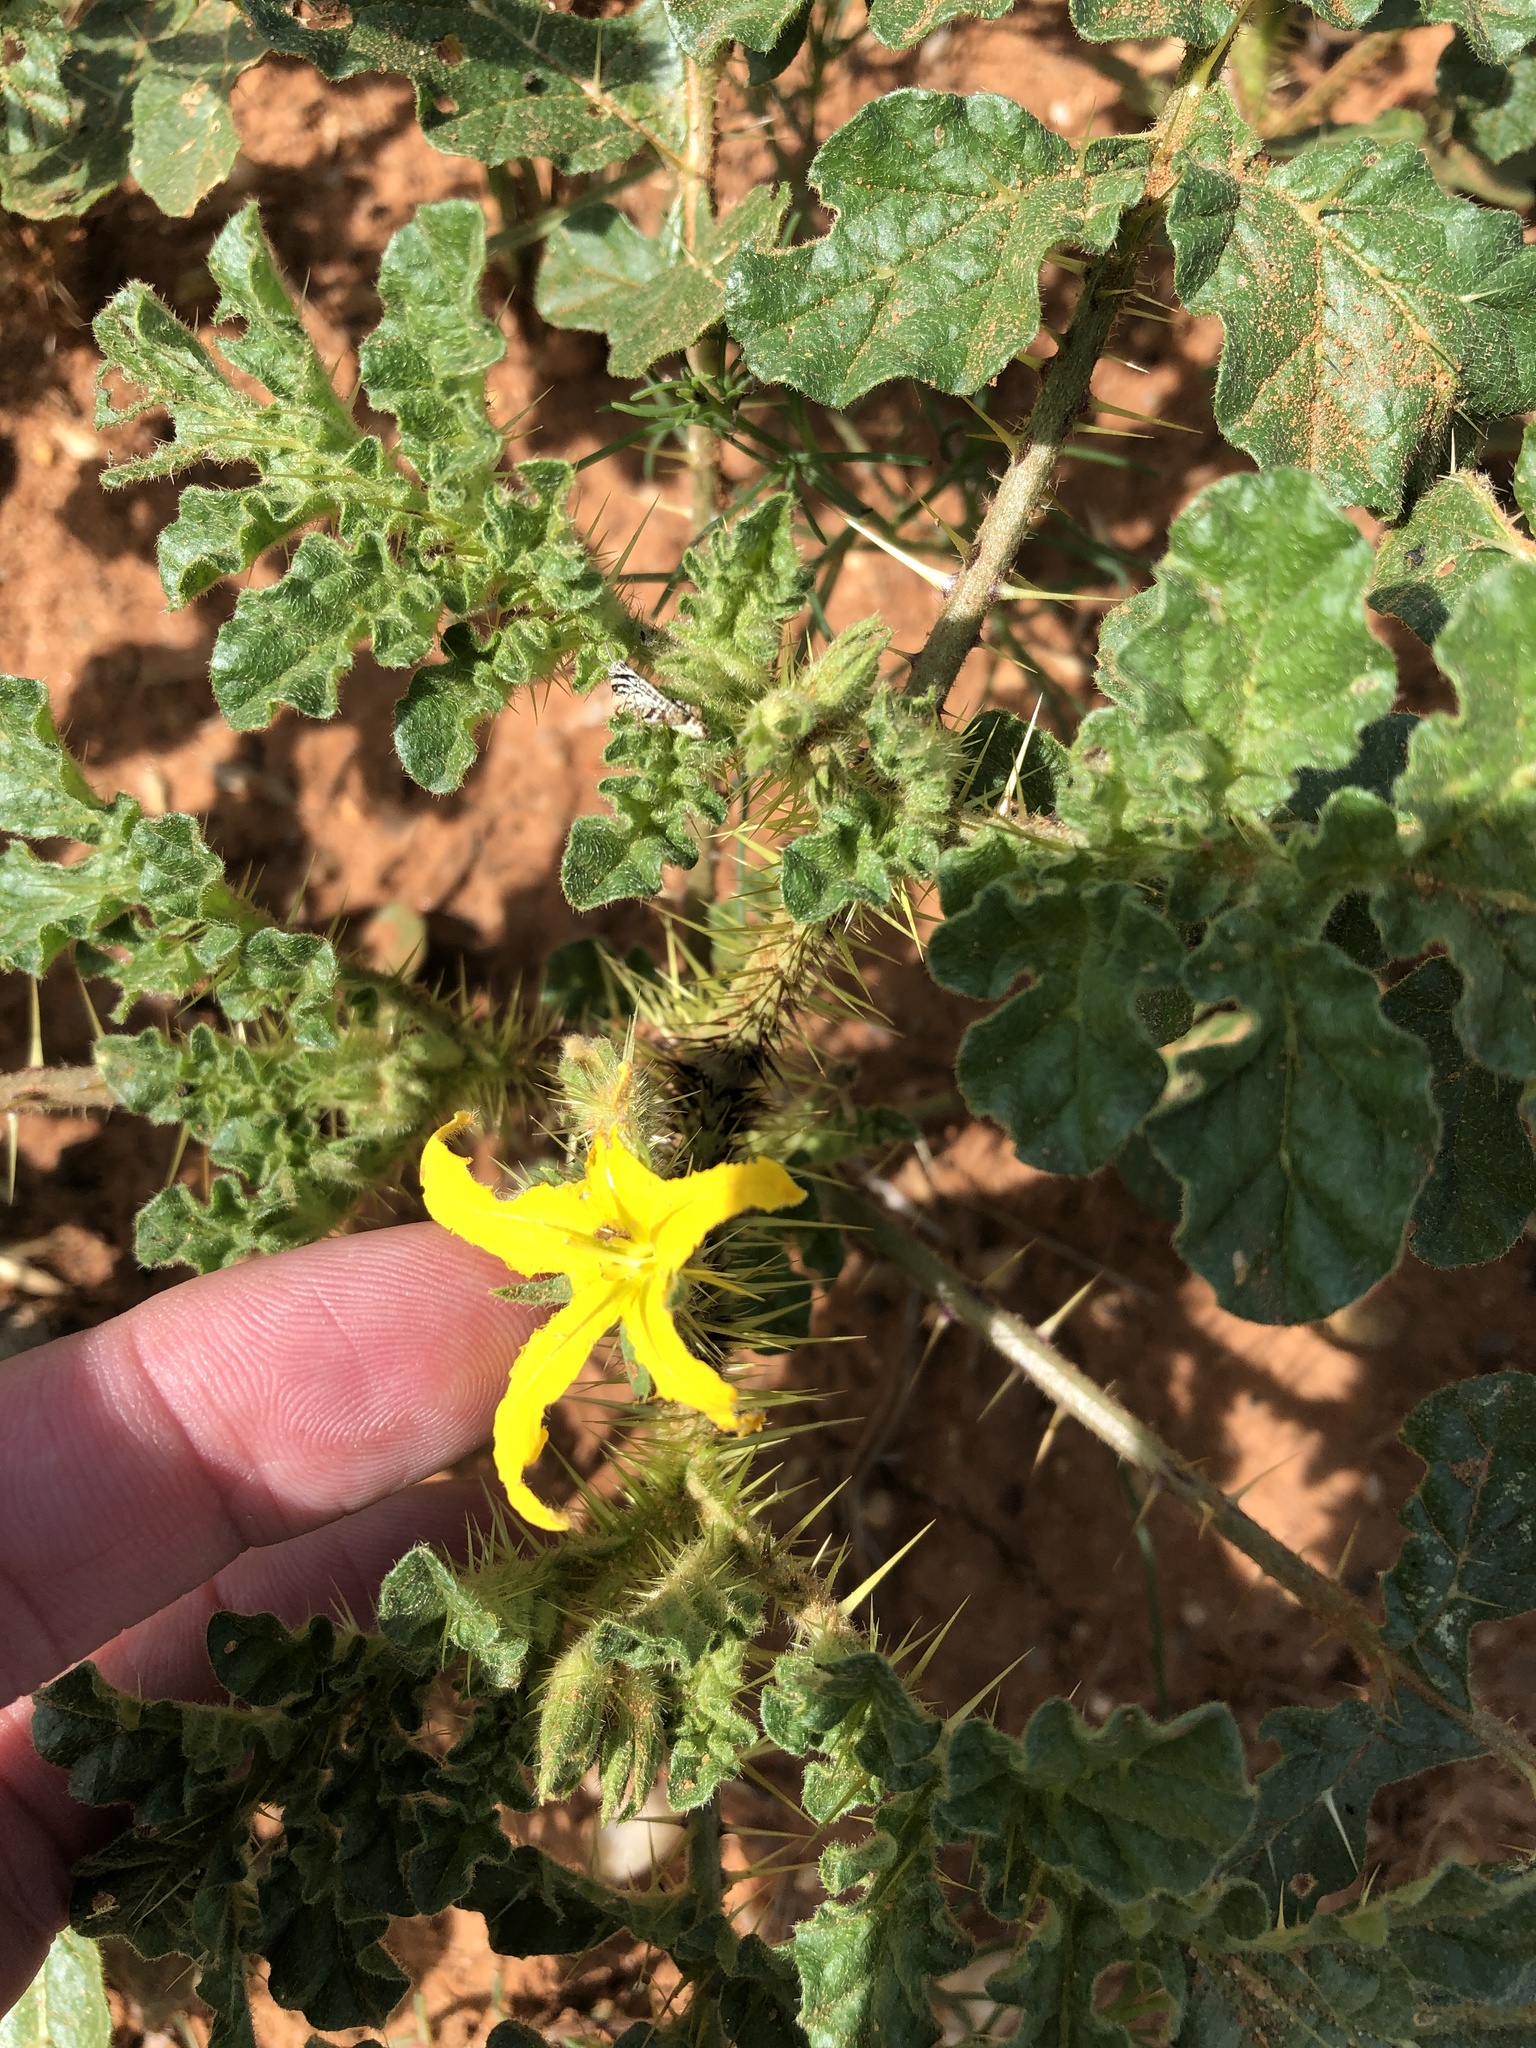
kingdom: Plantae
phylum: Tracheophyta
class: Magnoliopsida
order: Solanales
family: Solanaceae
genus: Solanum
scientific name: Solanum angustifolium
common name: Buffalobur nightshade
